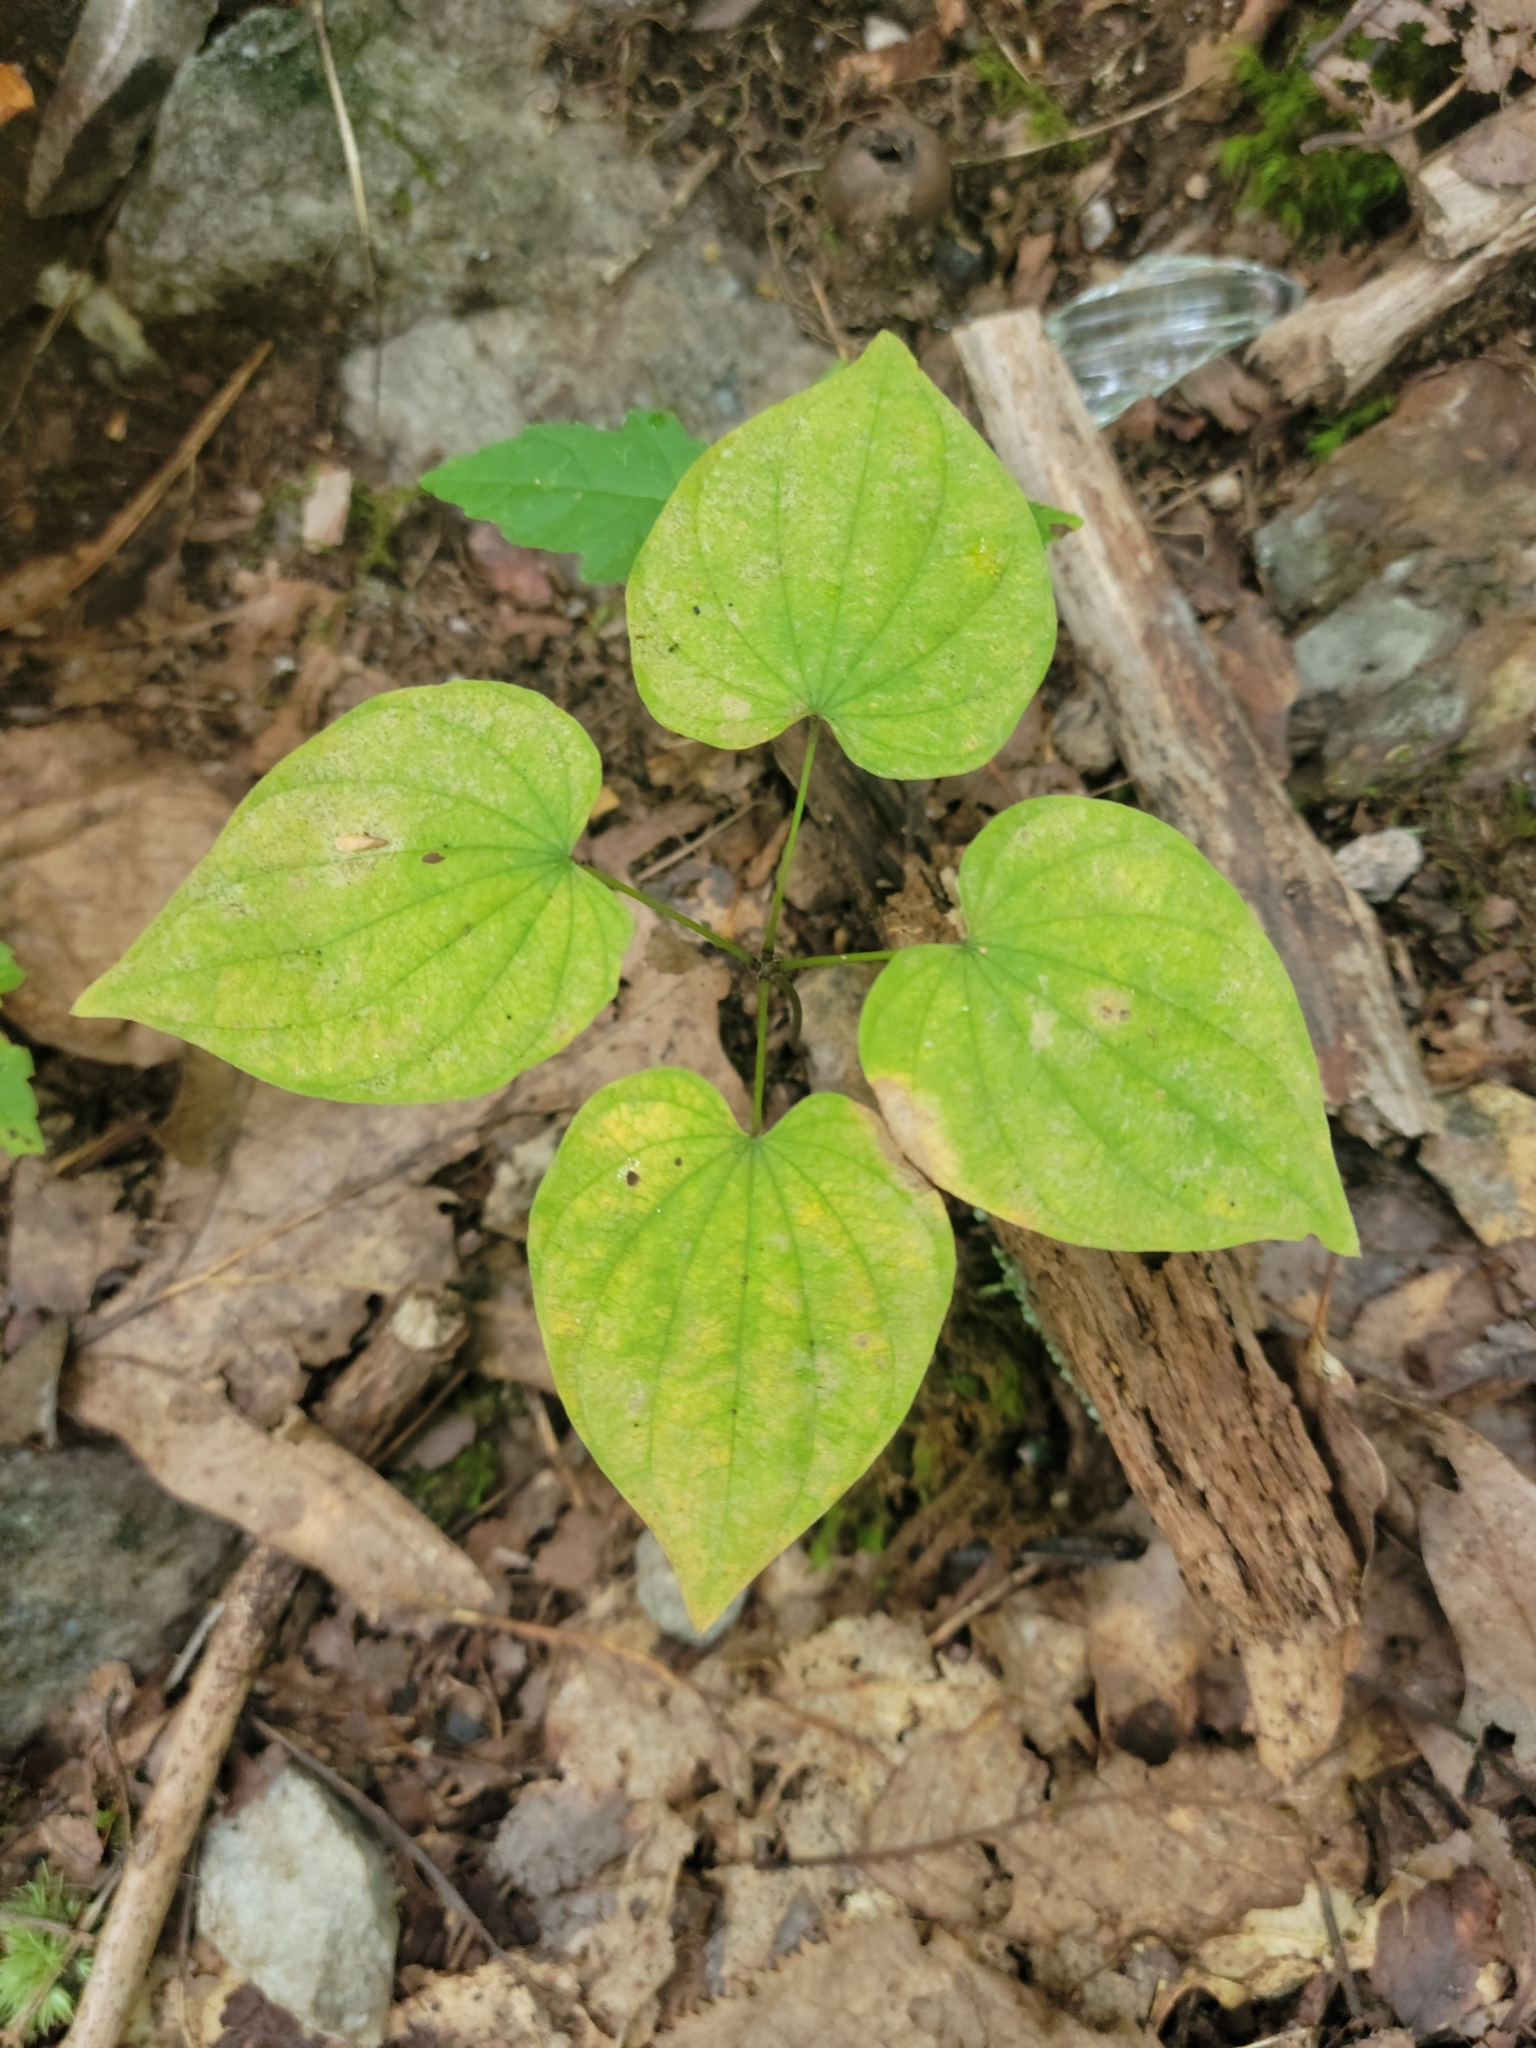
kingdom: Plantae
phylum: Tracheophyta
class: Liliopsida
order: Dioscoreales
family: Dioscoreaceae
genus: Dioscorea
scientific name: Dioscorea villosa
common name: Wild yam
